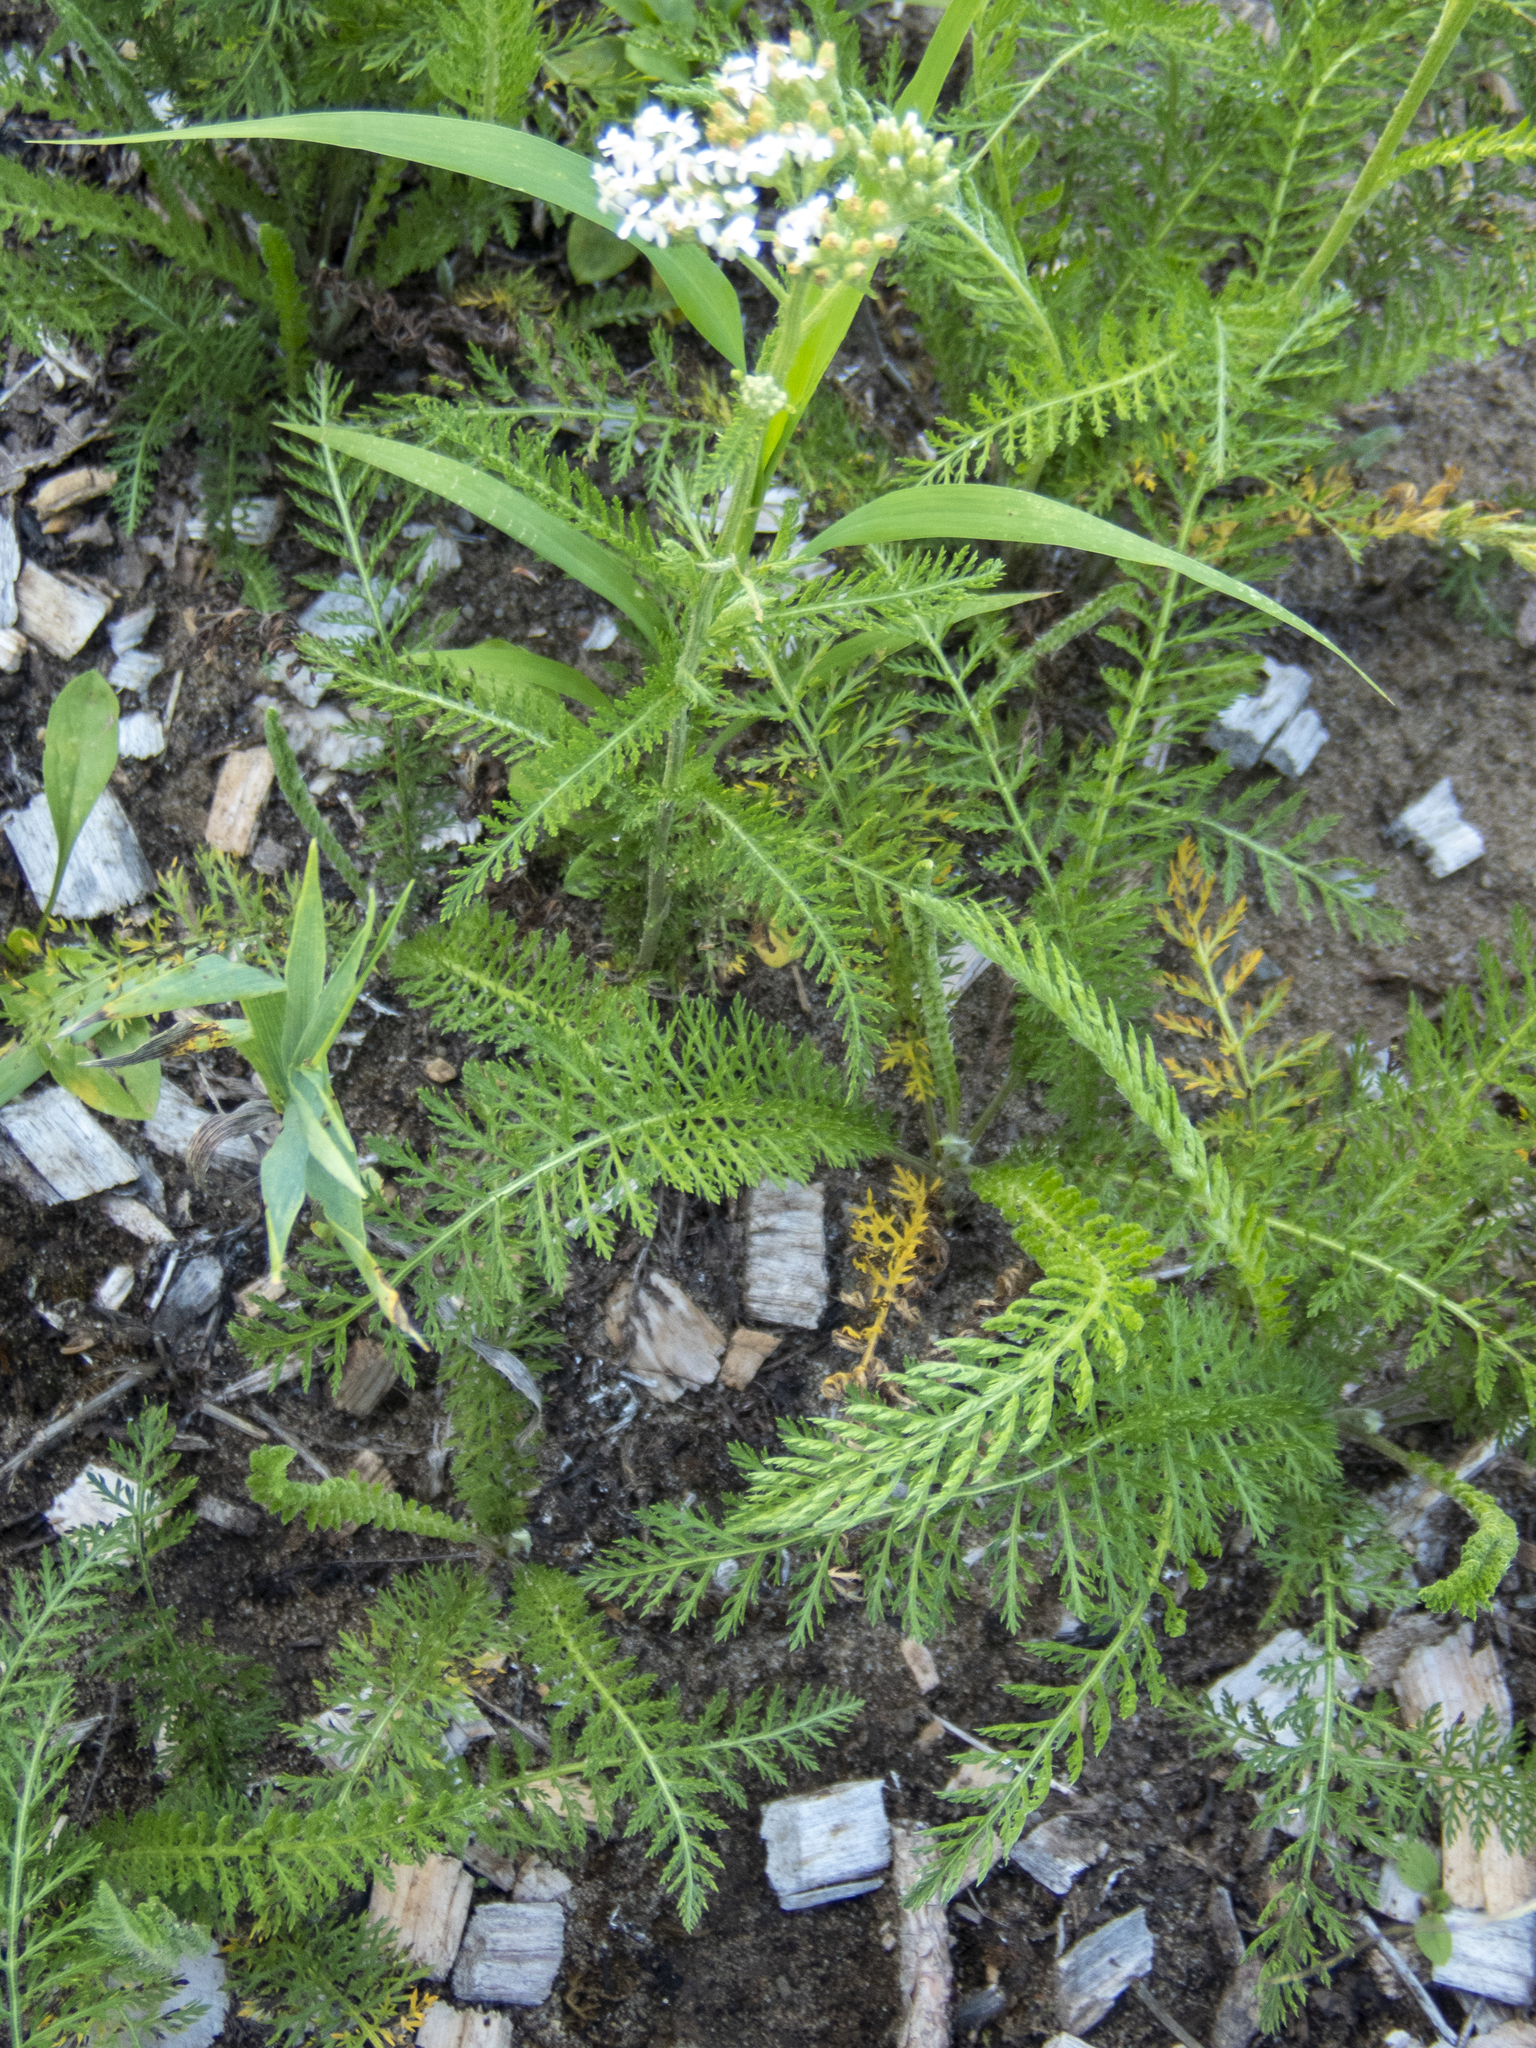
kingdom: Plantae
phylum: Tracheophyta
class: Magnoliopsida
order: Asterales
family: Asteraceae
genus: Achillea
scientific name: Achillea millefolium
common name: Yarrow
